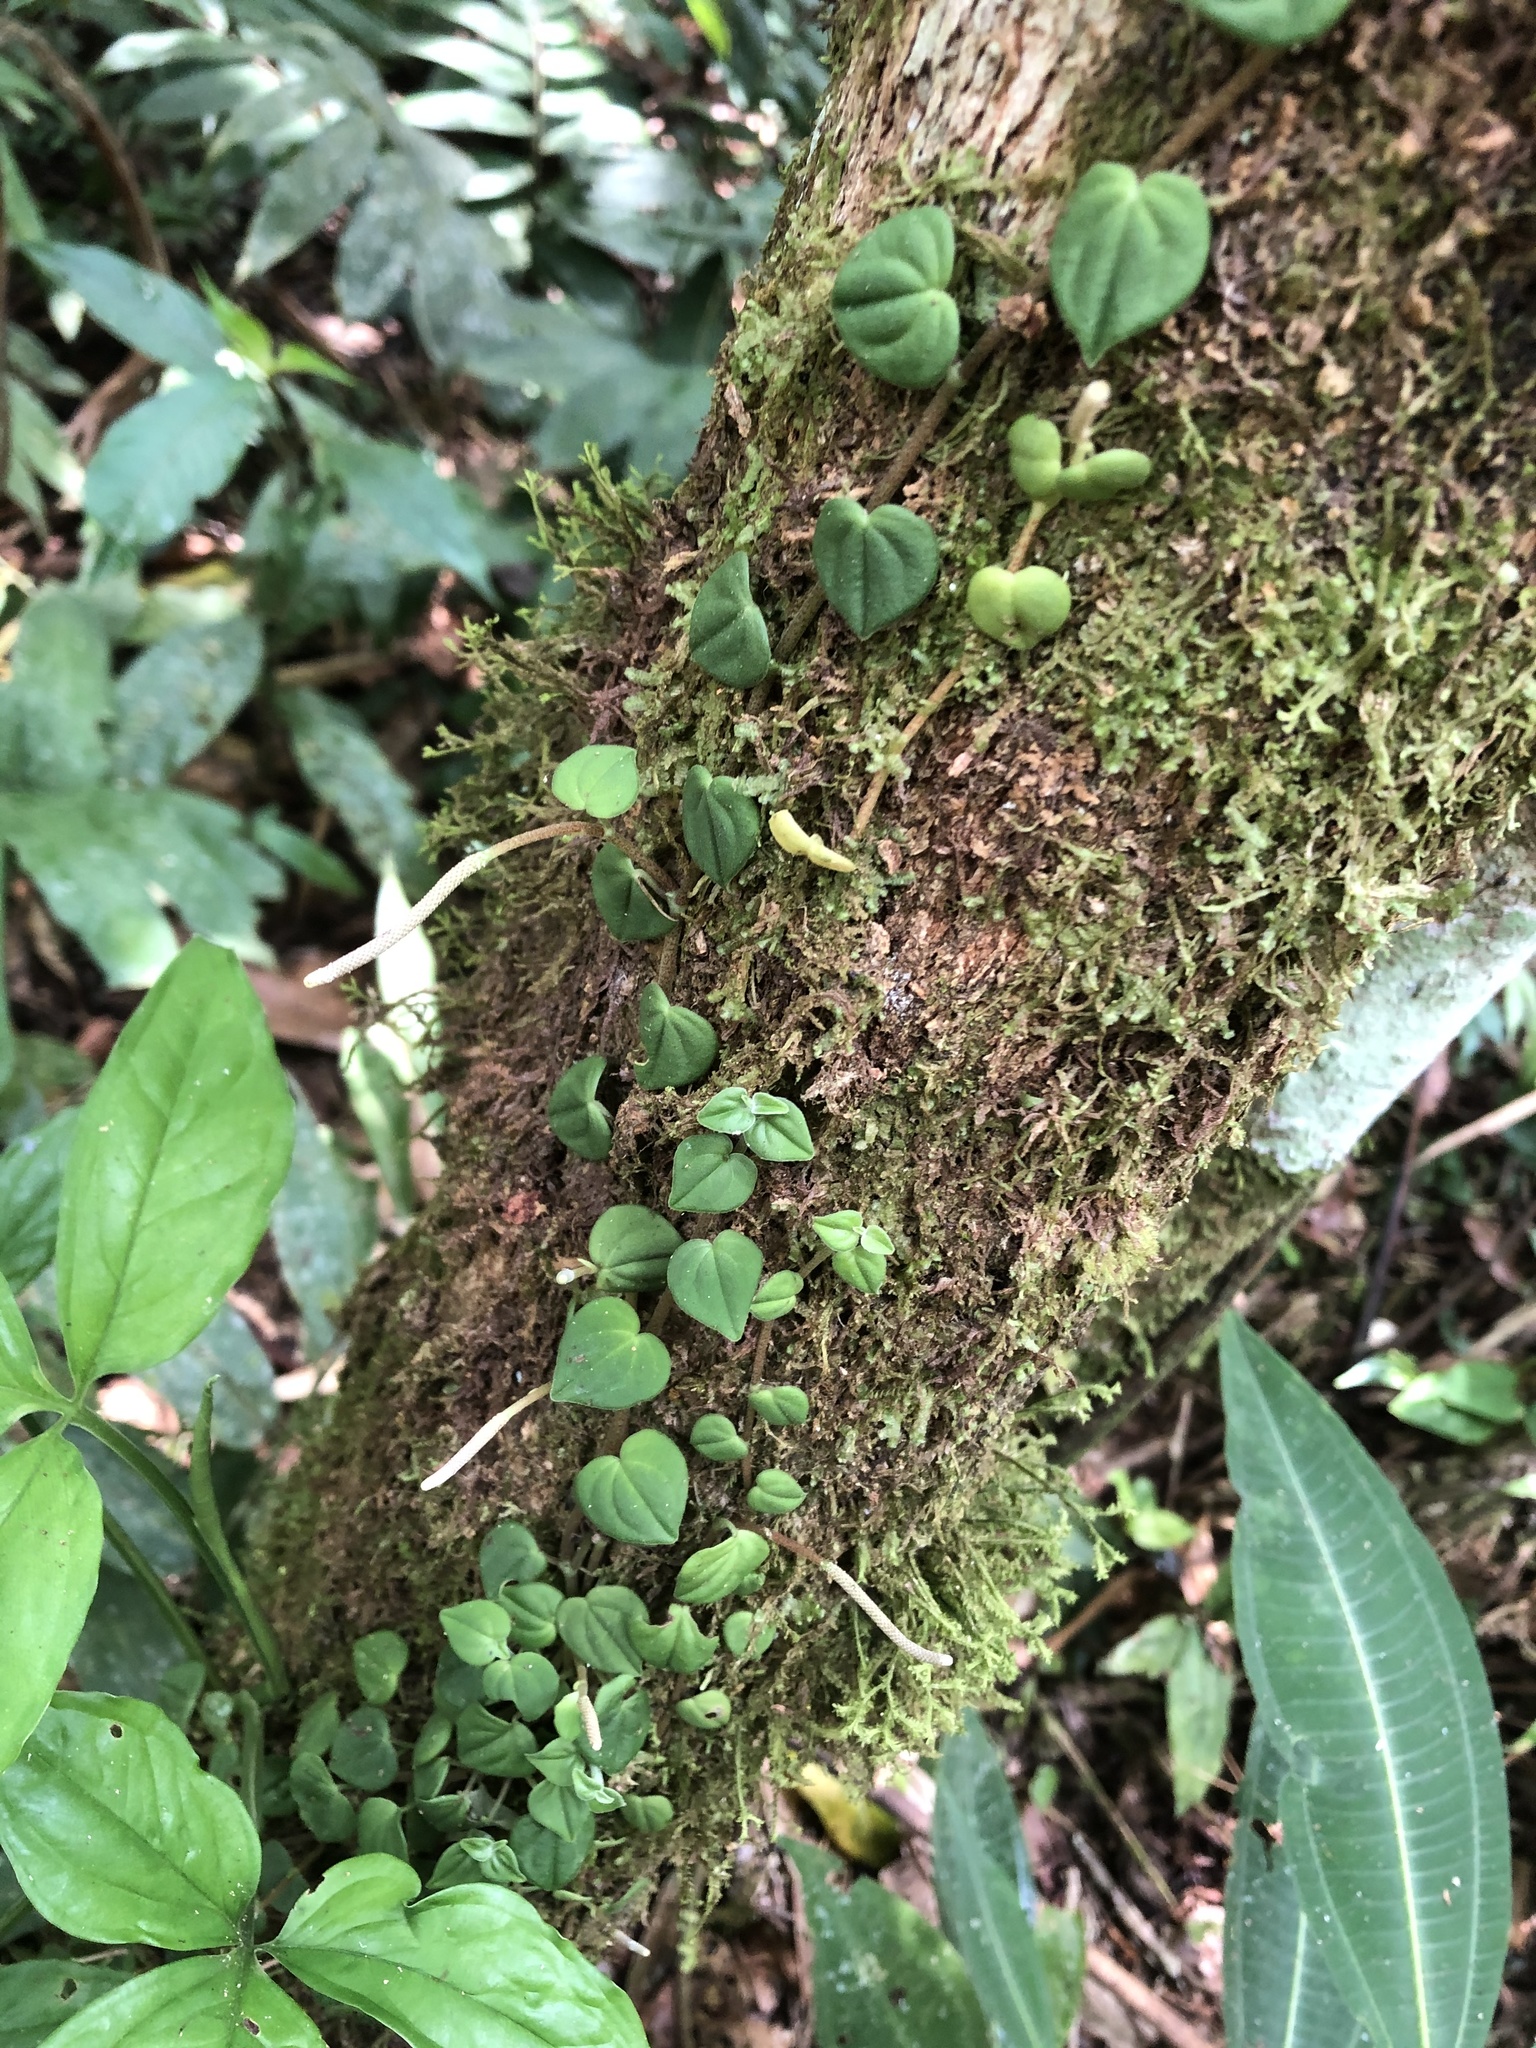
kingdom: Plantae
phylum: Tracheophyta
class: Magnoliopsida
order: Piperales
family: Piperaceae
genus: Peperomia
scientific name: Peperomia serpens
